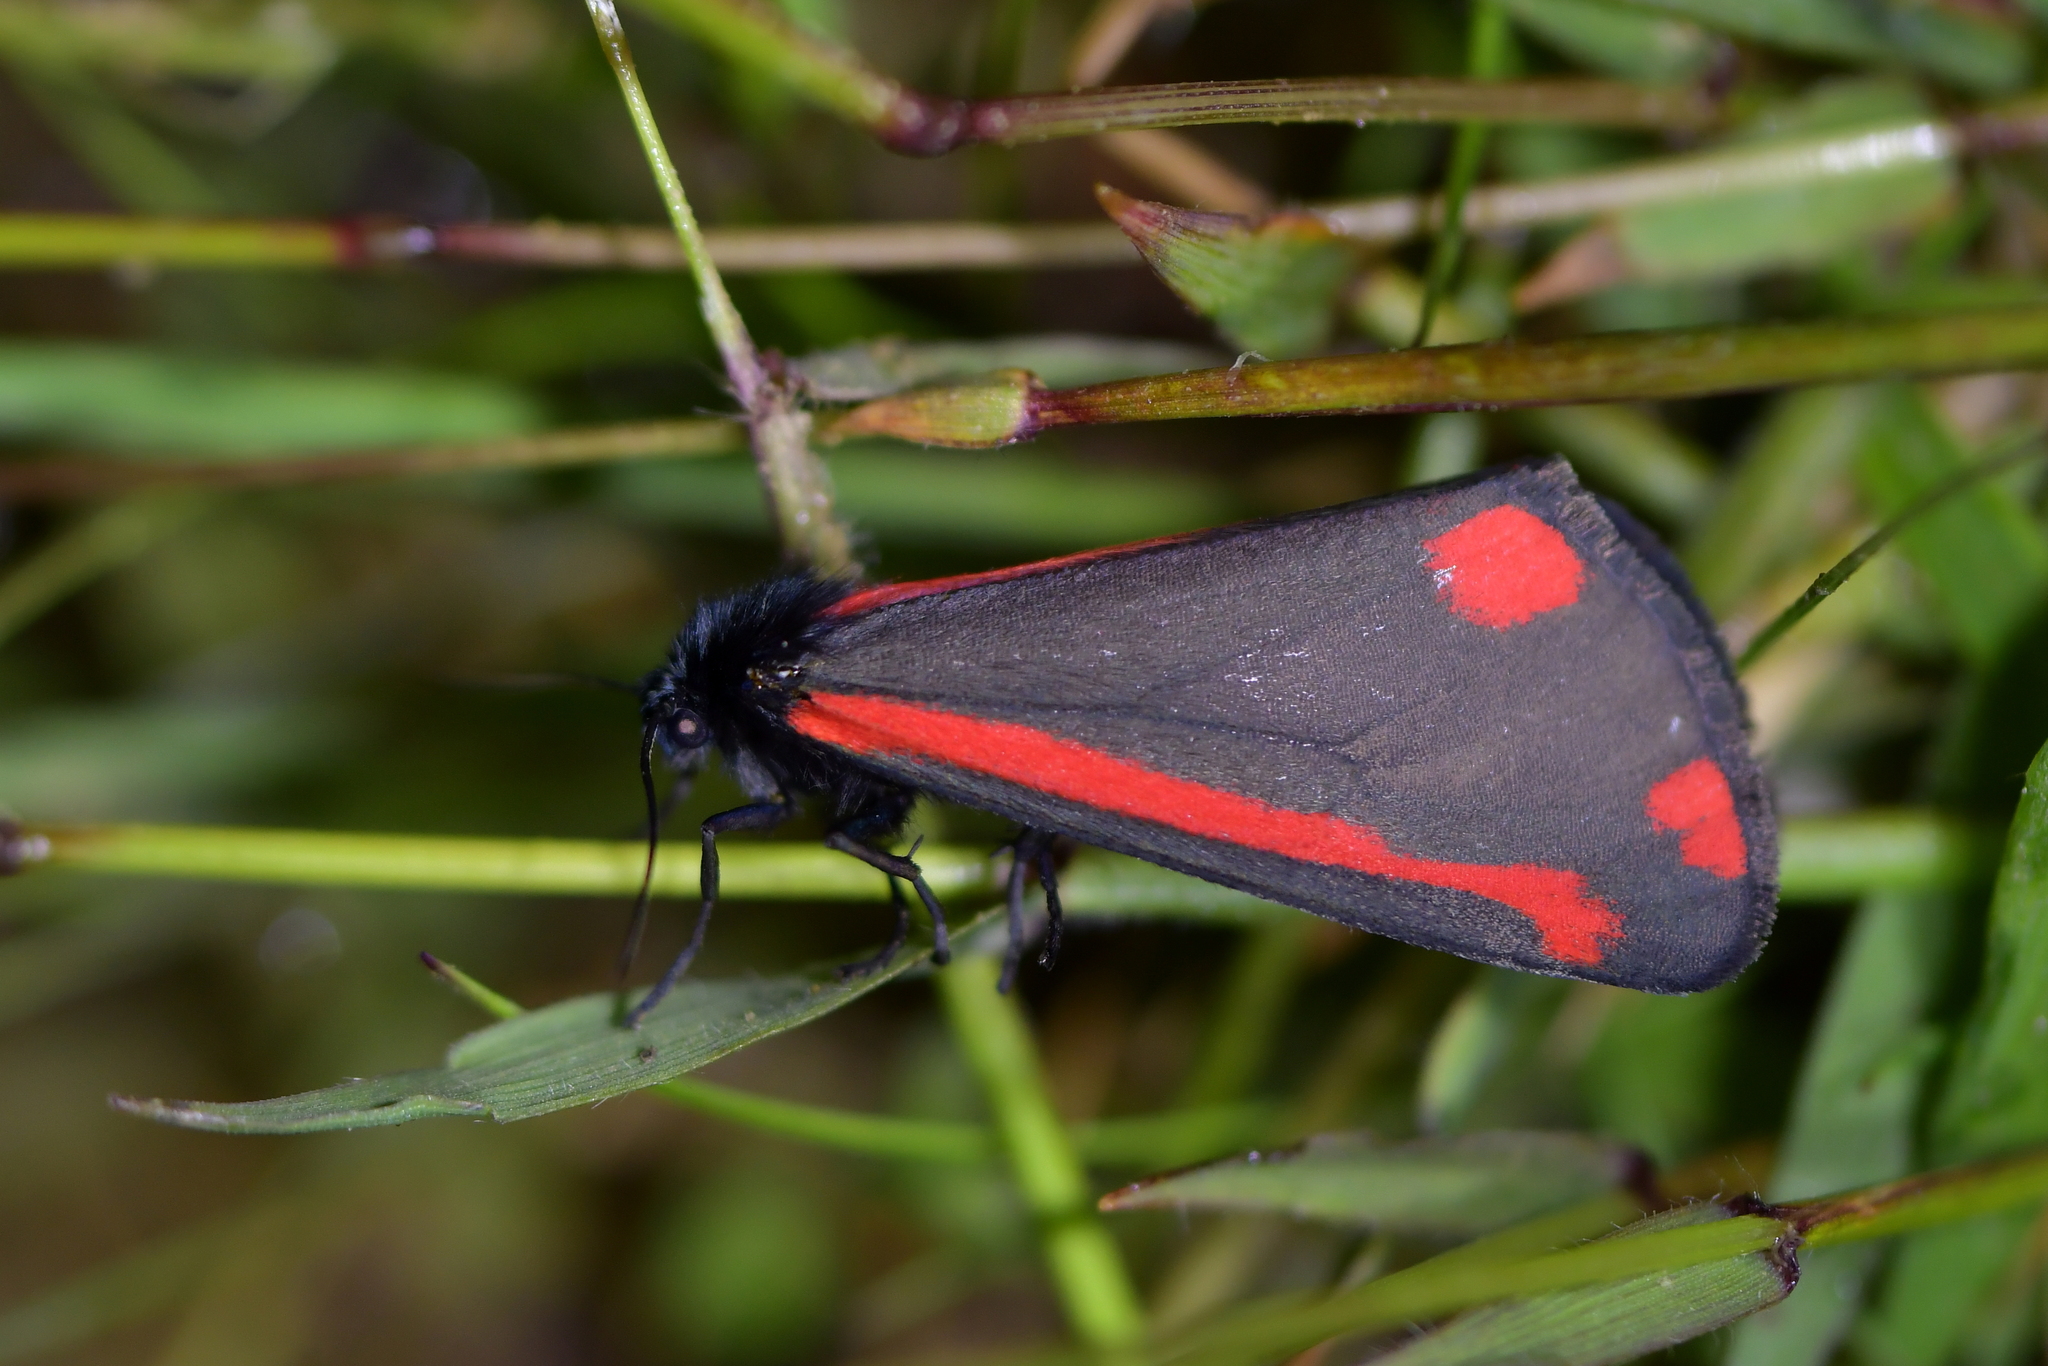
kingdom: Animalia
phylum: Arthropoda
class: Insecta
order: Lepidoptera
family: Erebidae
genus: Tyria
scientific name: Tyria jacobaeae
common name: Cinnabar
